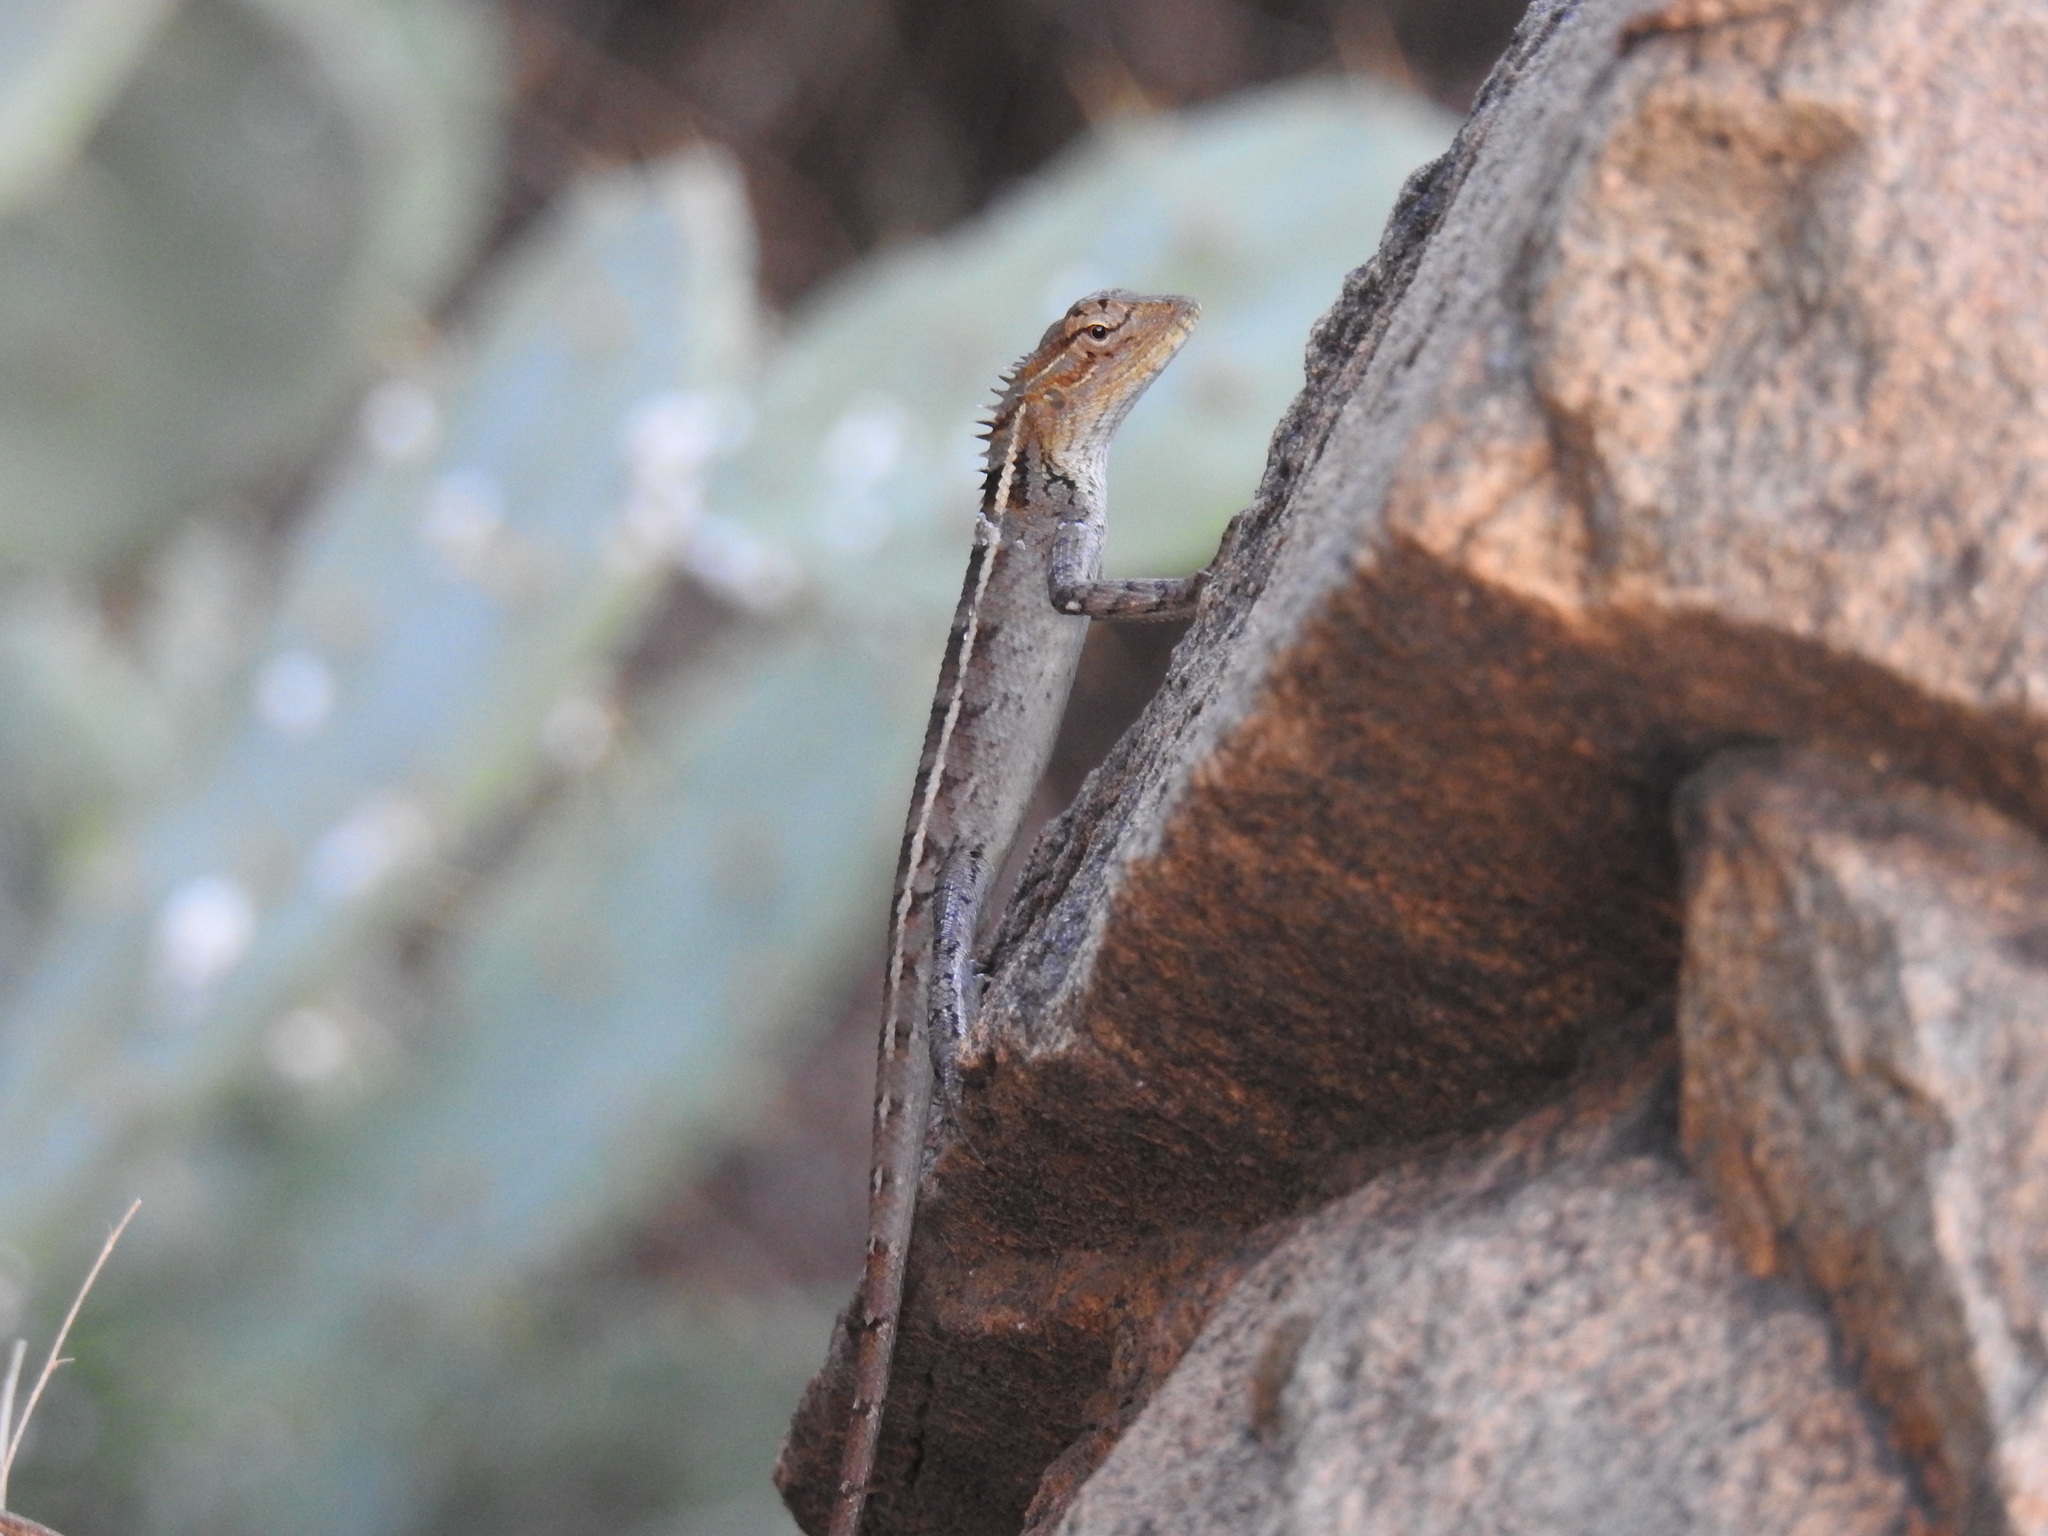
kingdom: Animalia
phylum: Chordata
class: Squamata
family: Agamidae
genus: Calotes
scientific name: Calotes versicolor
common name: Oriental garden lizard
